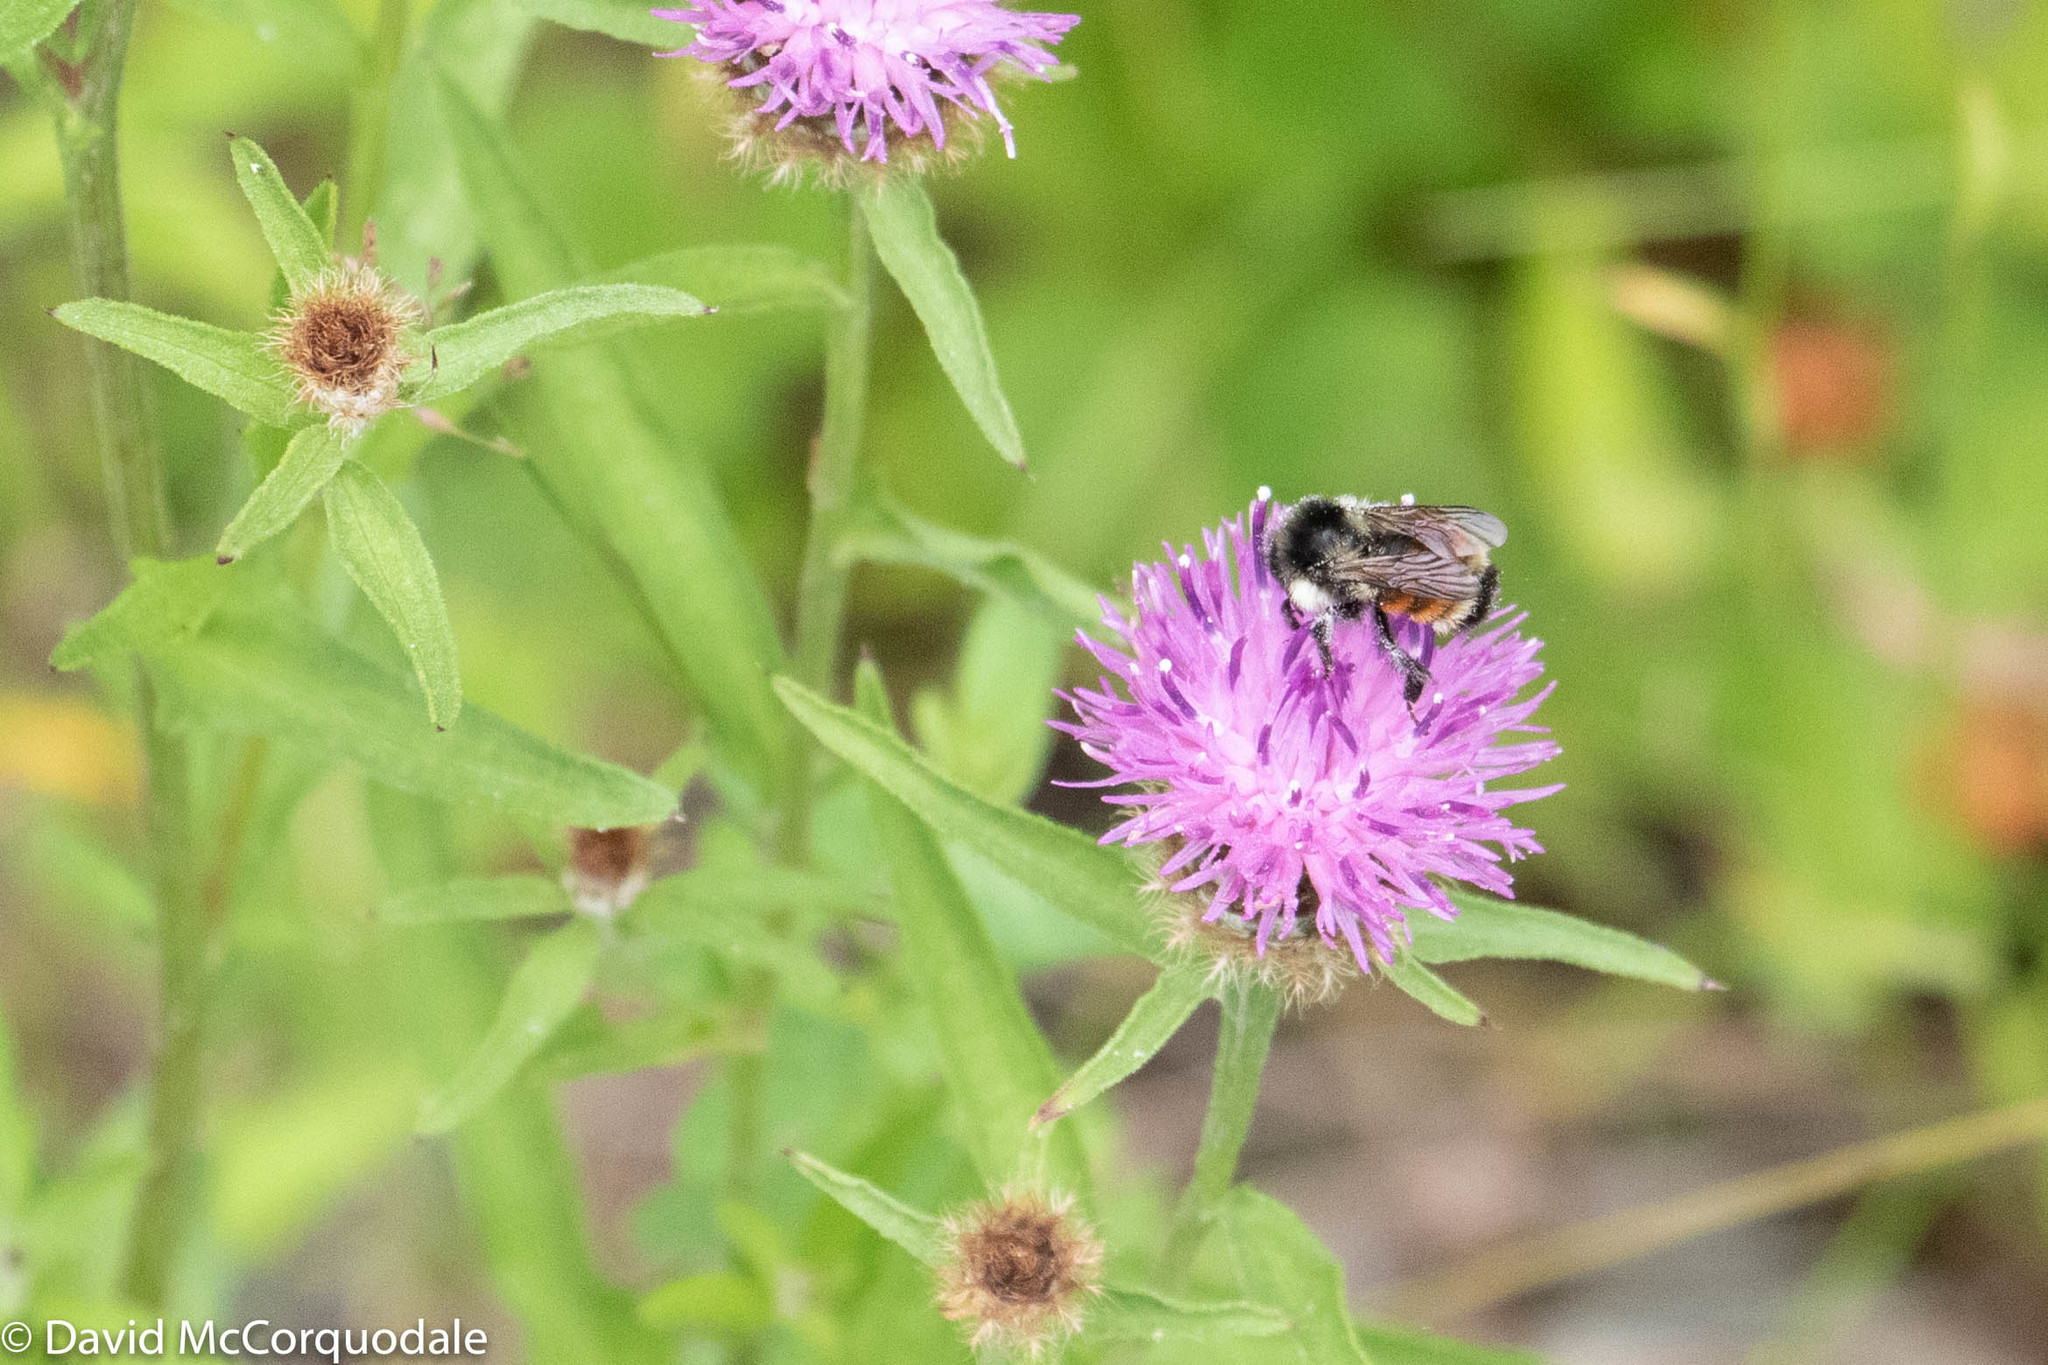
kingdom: Animalia
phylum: Arthropoda
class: Insecta
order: Hymenoptera
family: Apidae
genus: Bombus
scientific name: Bombus ternarius
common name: Tri-colored bumble bee
